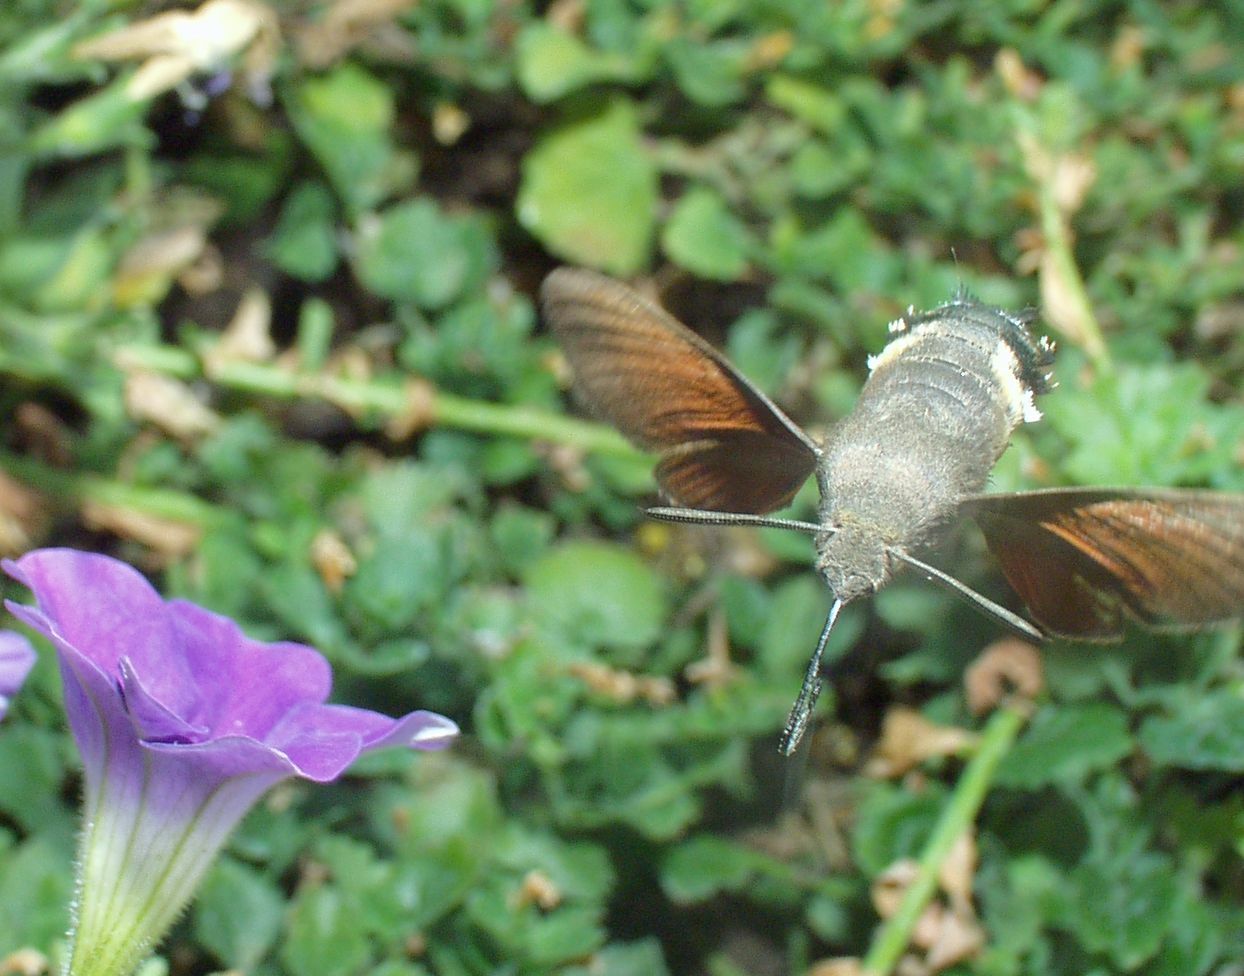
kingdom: Animalia
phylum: Arthropoda
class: Insecta
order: Lepidoptera
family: Sphingidae
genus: Macroglossum
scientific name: Macroglossum stellatarum
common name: Humming-bird hawk-moth
